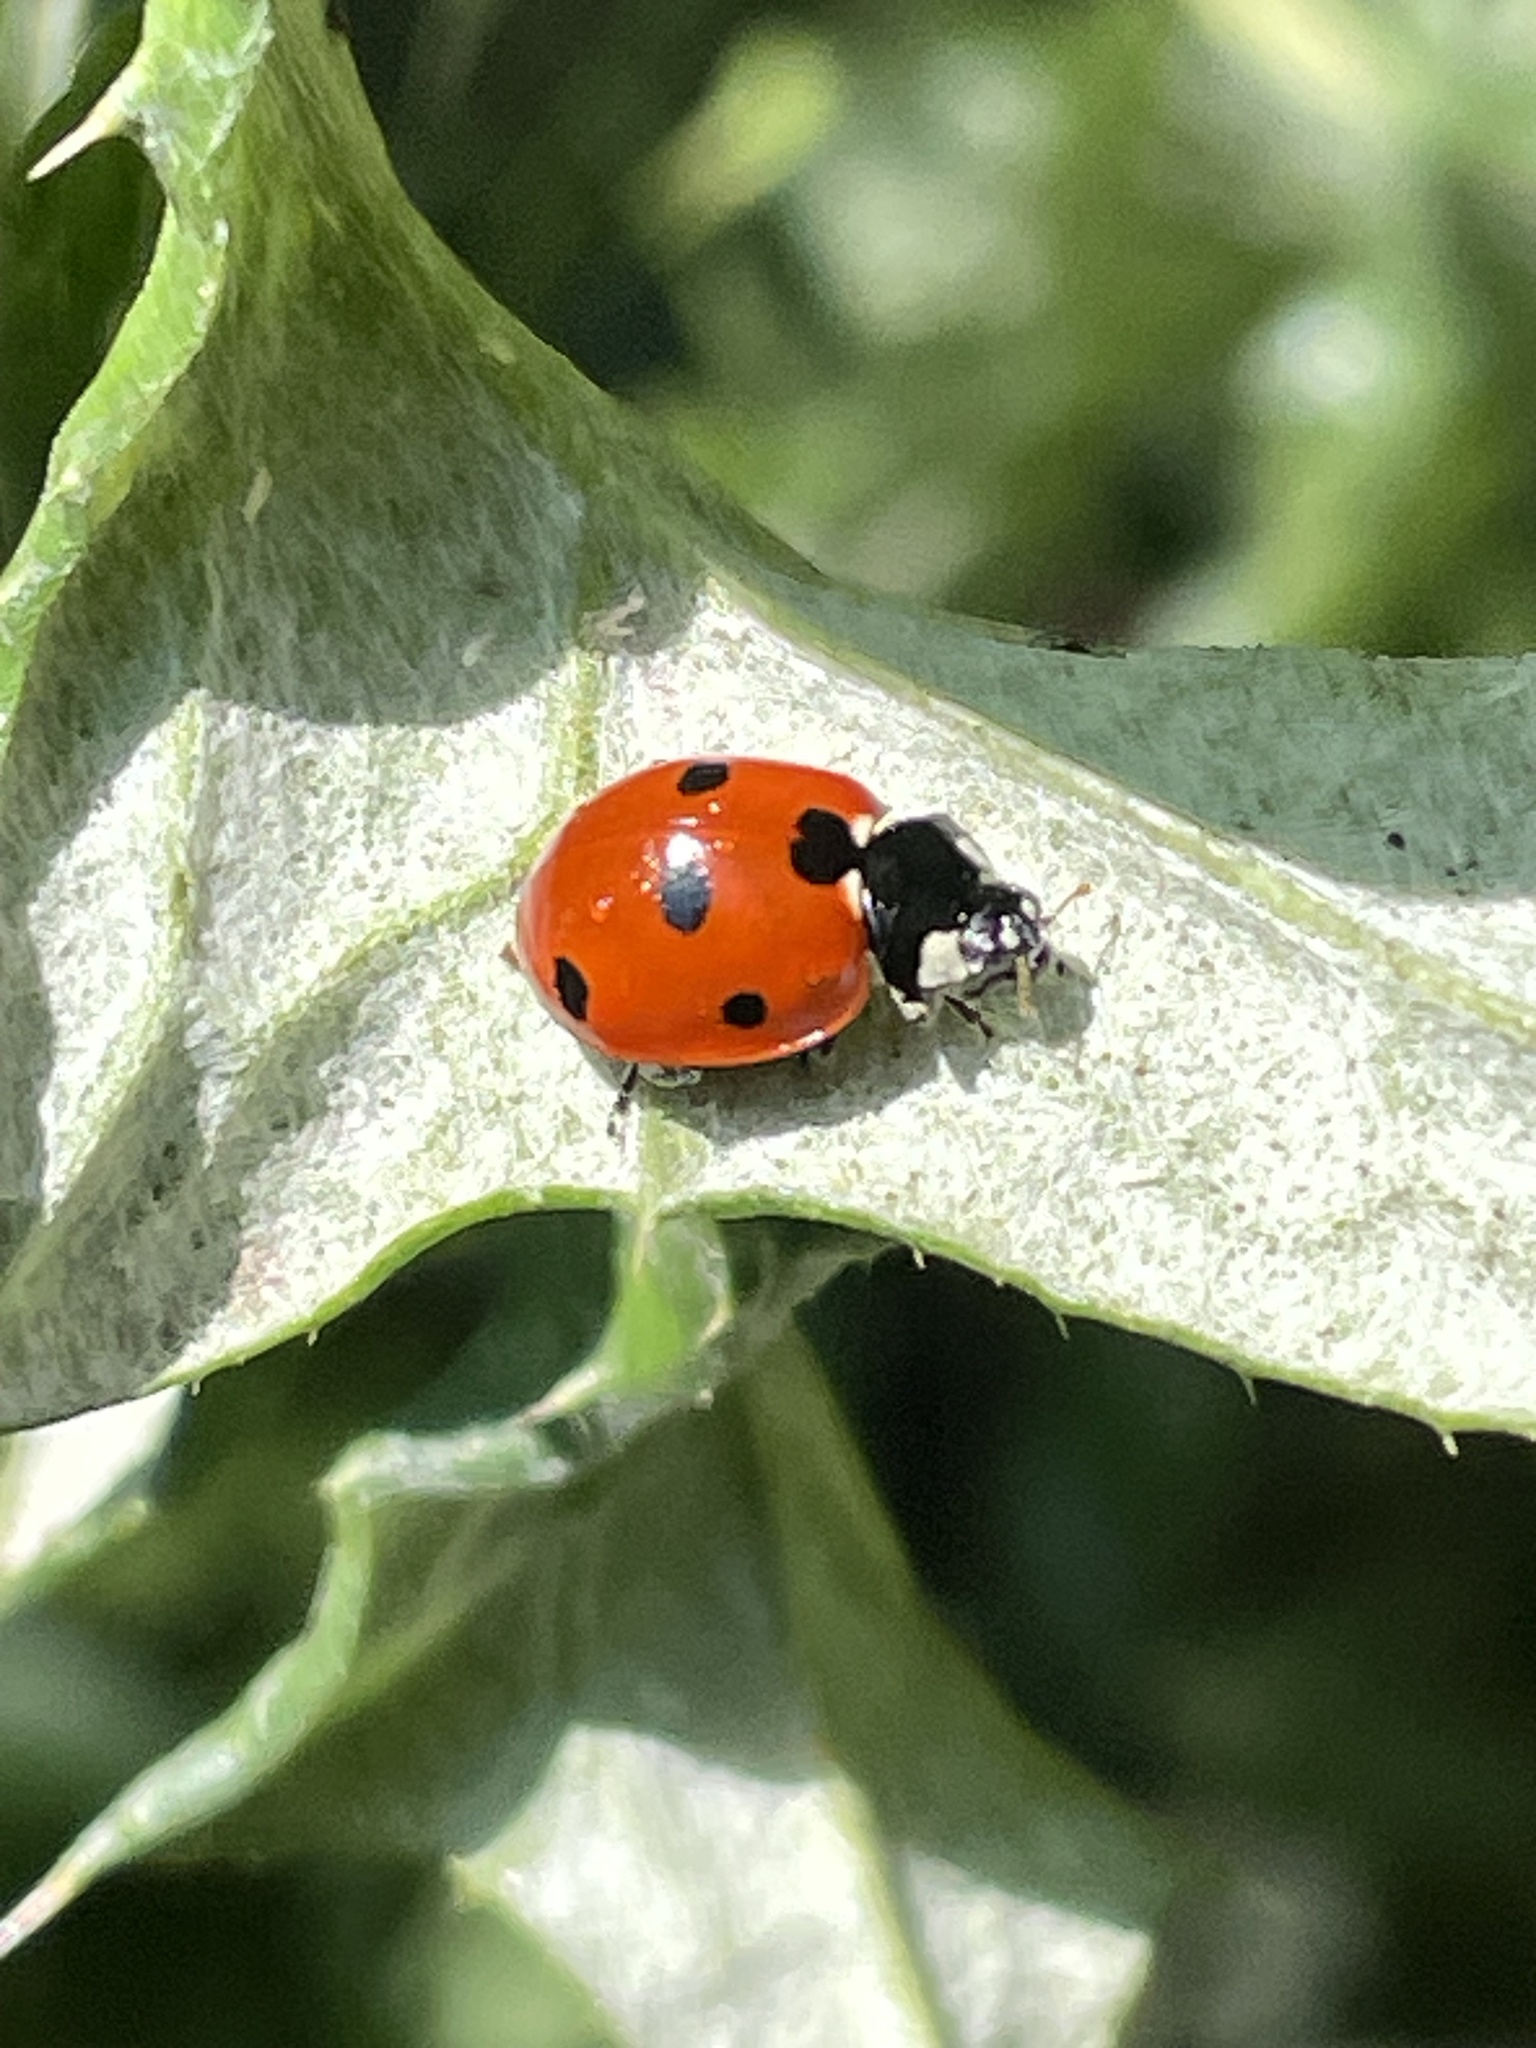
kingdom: Animalia
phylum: Arthropoda
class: Insecta
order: Coleoptera
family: Coccinellidae
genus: Coccinella
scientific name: Coccinella septempunctata
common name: Sevenspotted lady beetle
